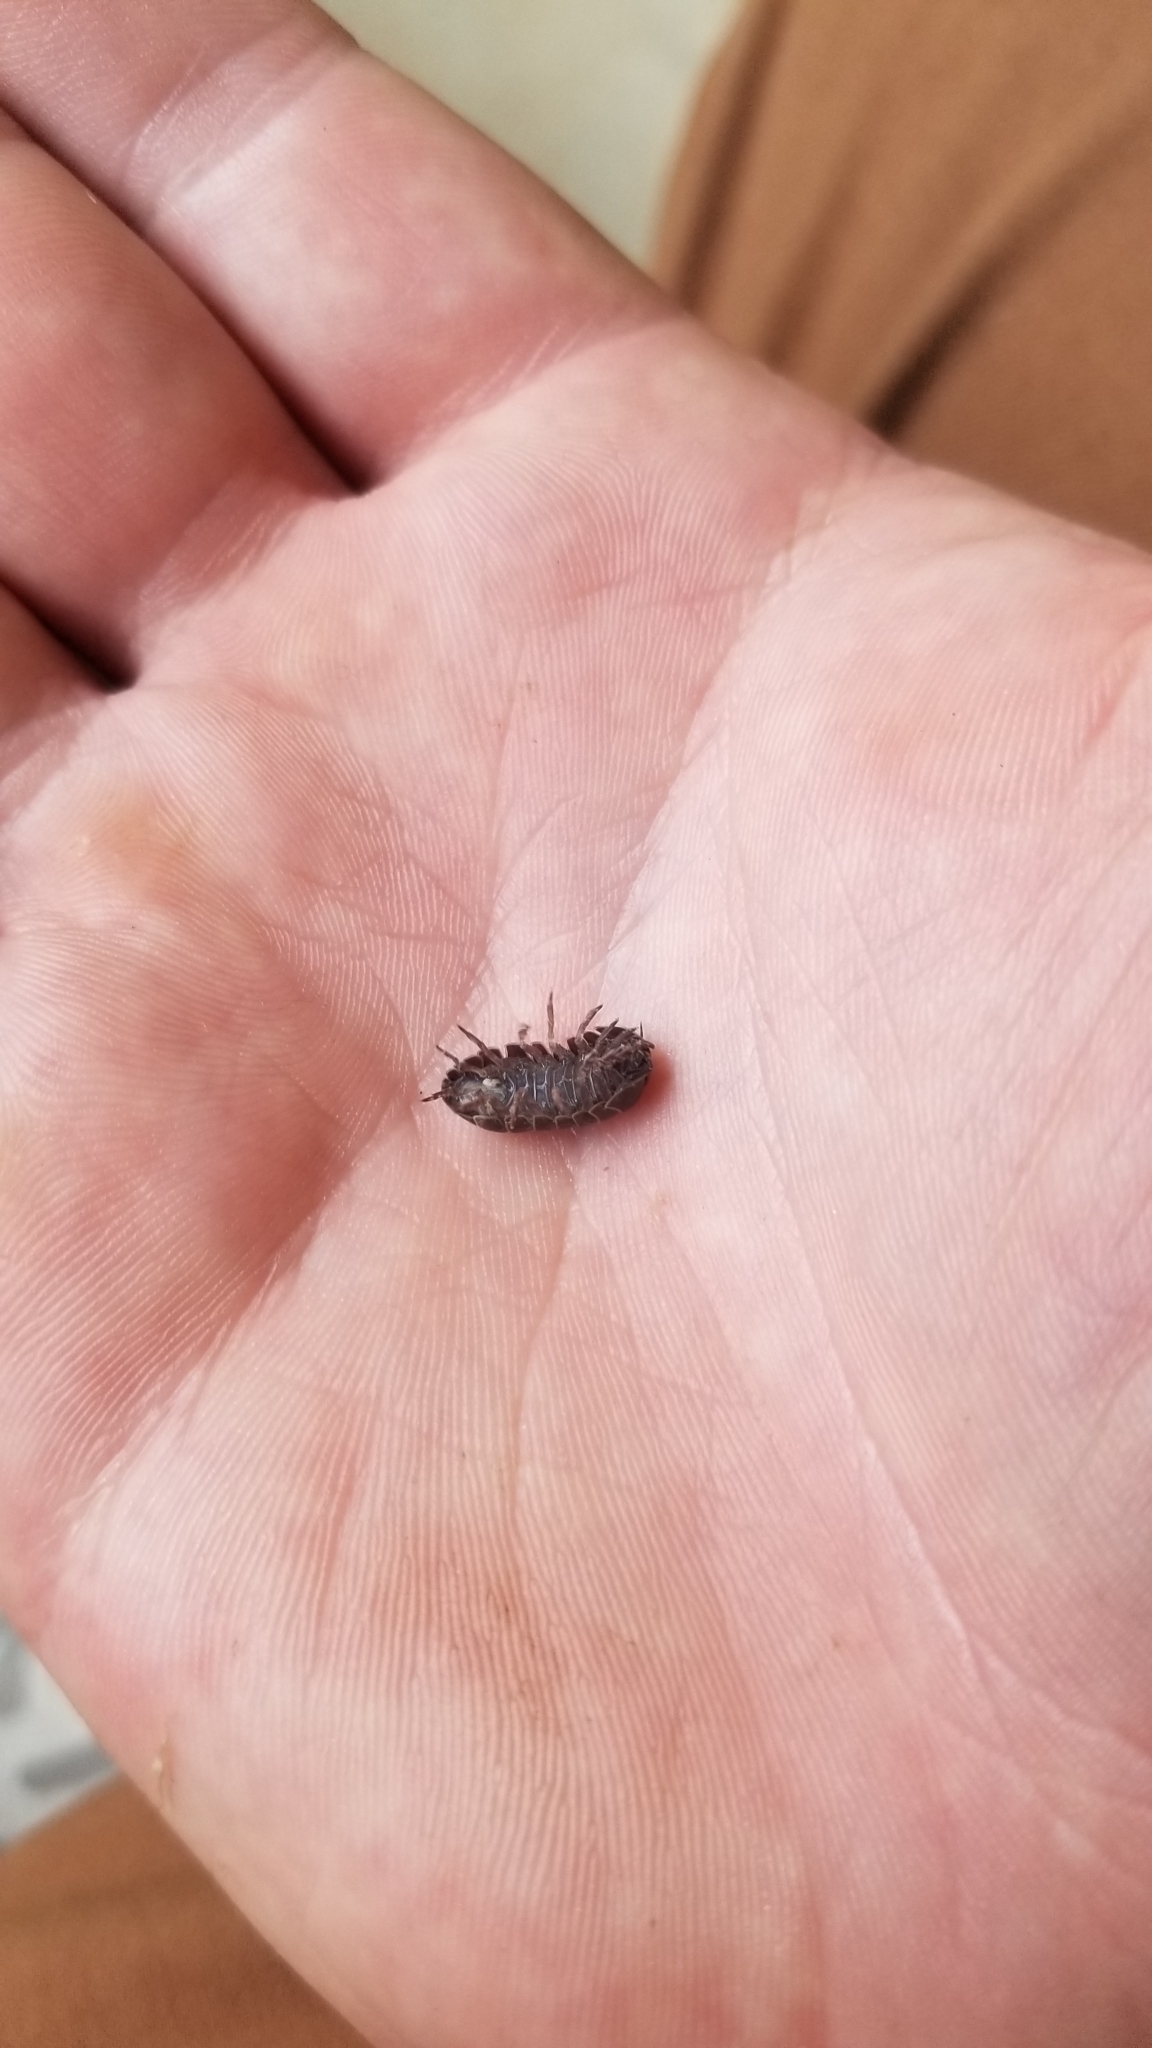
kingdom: Animalia
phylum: Arthropoda
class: Malacostraca
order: Isopoda
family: Armadillidiidae
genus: Armadillidium
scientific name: Armadillidium vulgare
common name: Common pill woodlouse
